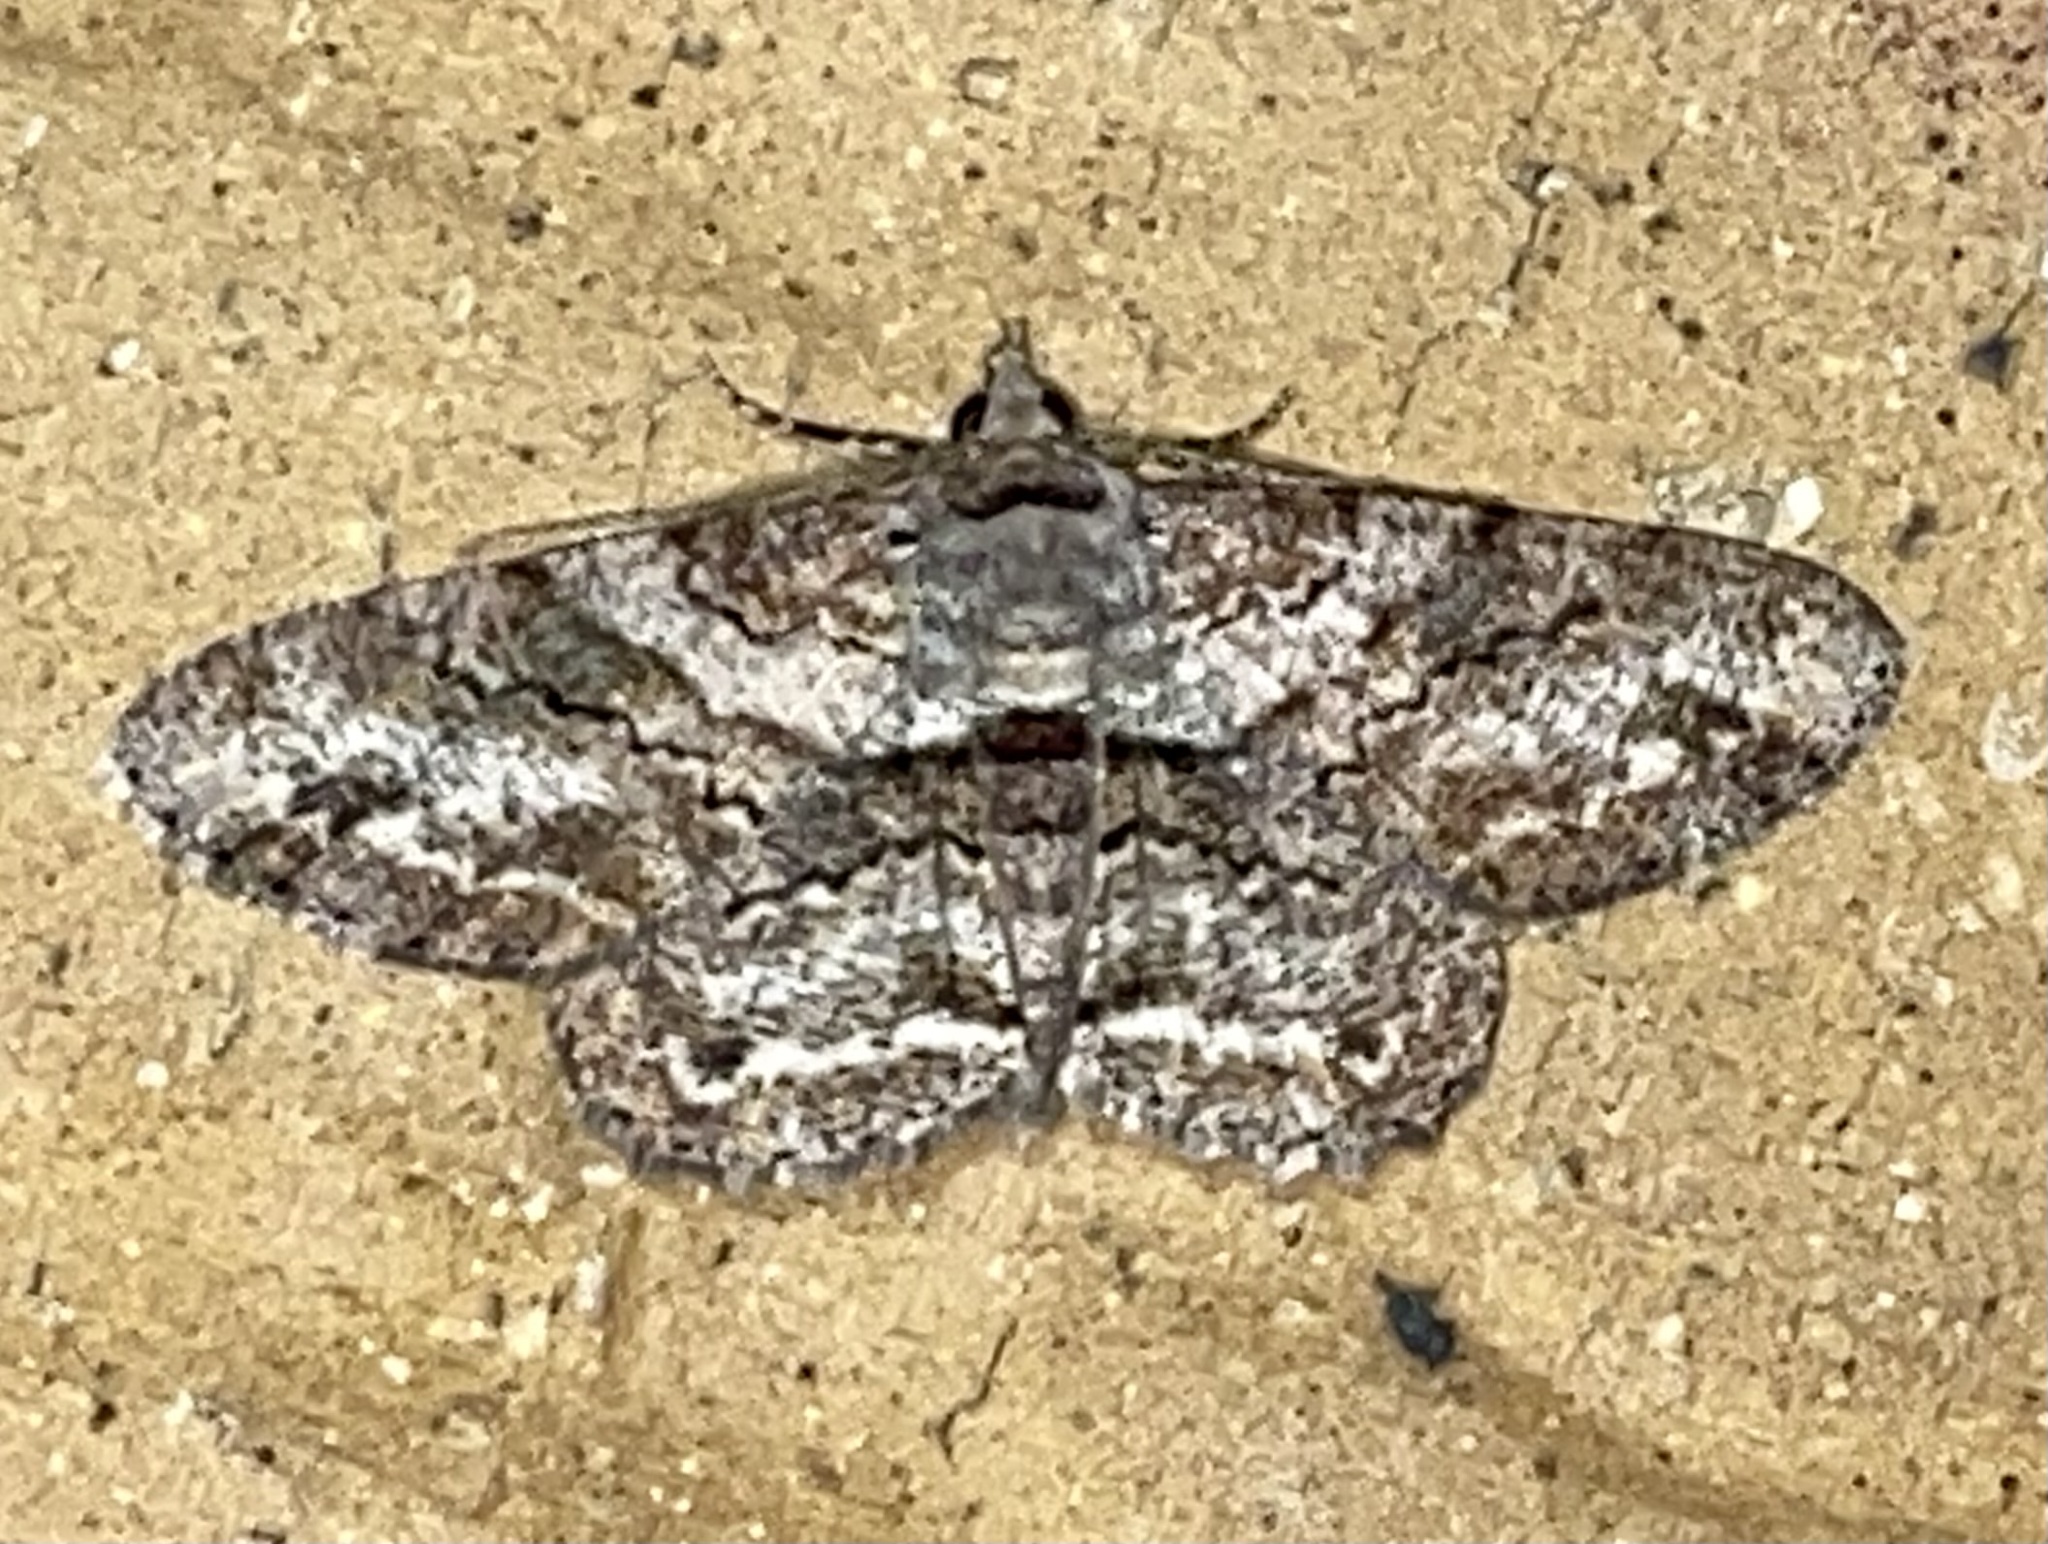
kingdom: Animalia
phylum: Arthropoda
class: Insecta
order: Lepidoptera
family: Geometridae
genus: Cleora
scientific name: Cleora repetita
